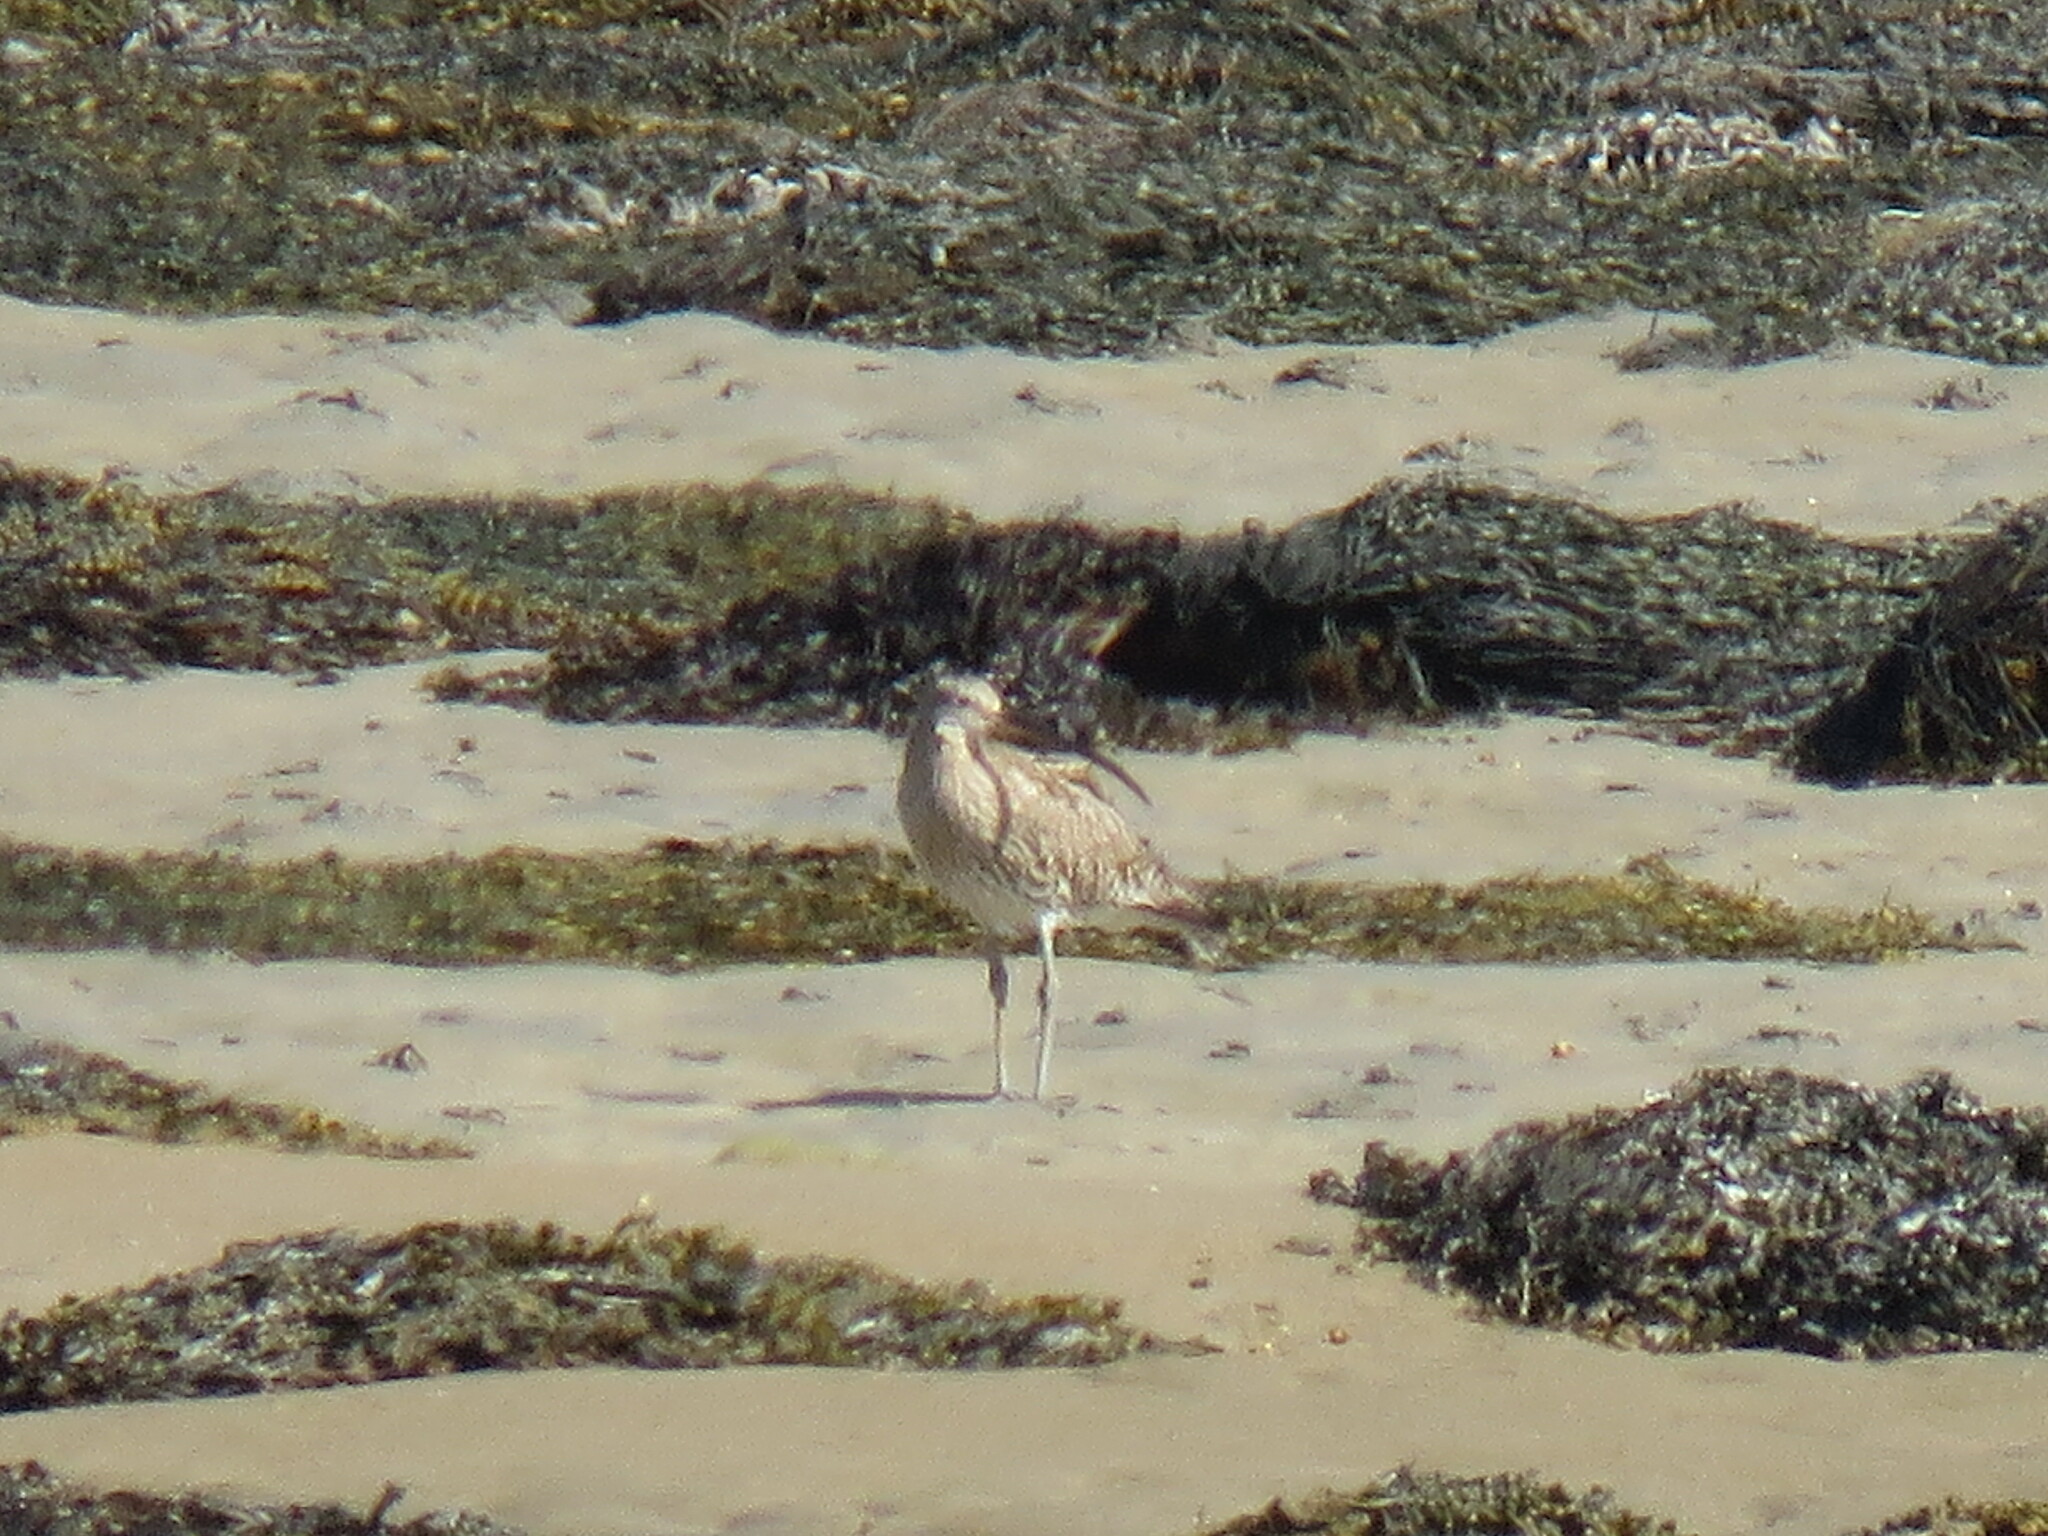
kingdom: Animalia
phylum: Chordata
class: Aves
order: Charadriiformes
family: Scolopacidae
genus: Numenius
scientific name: Numenius arquata
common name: Eurasian curlew
